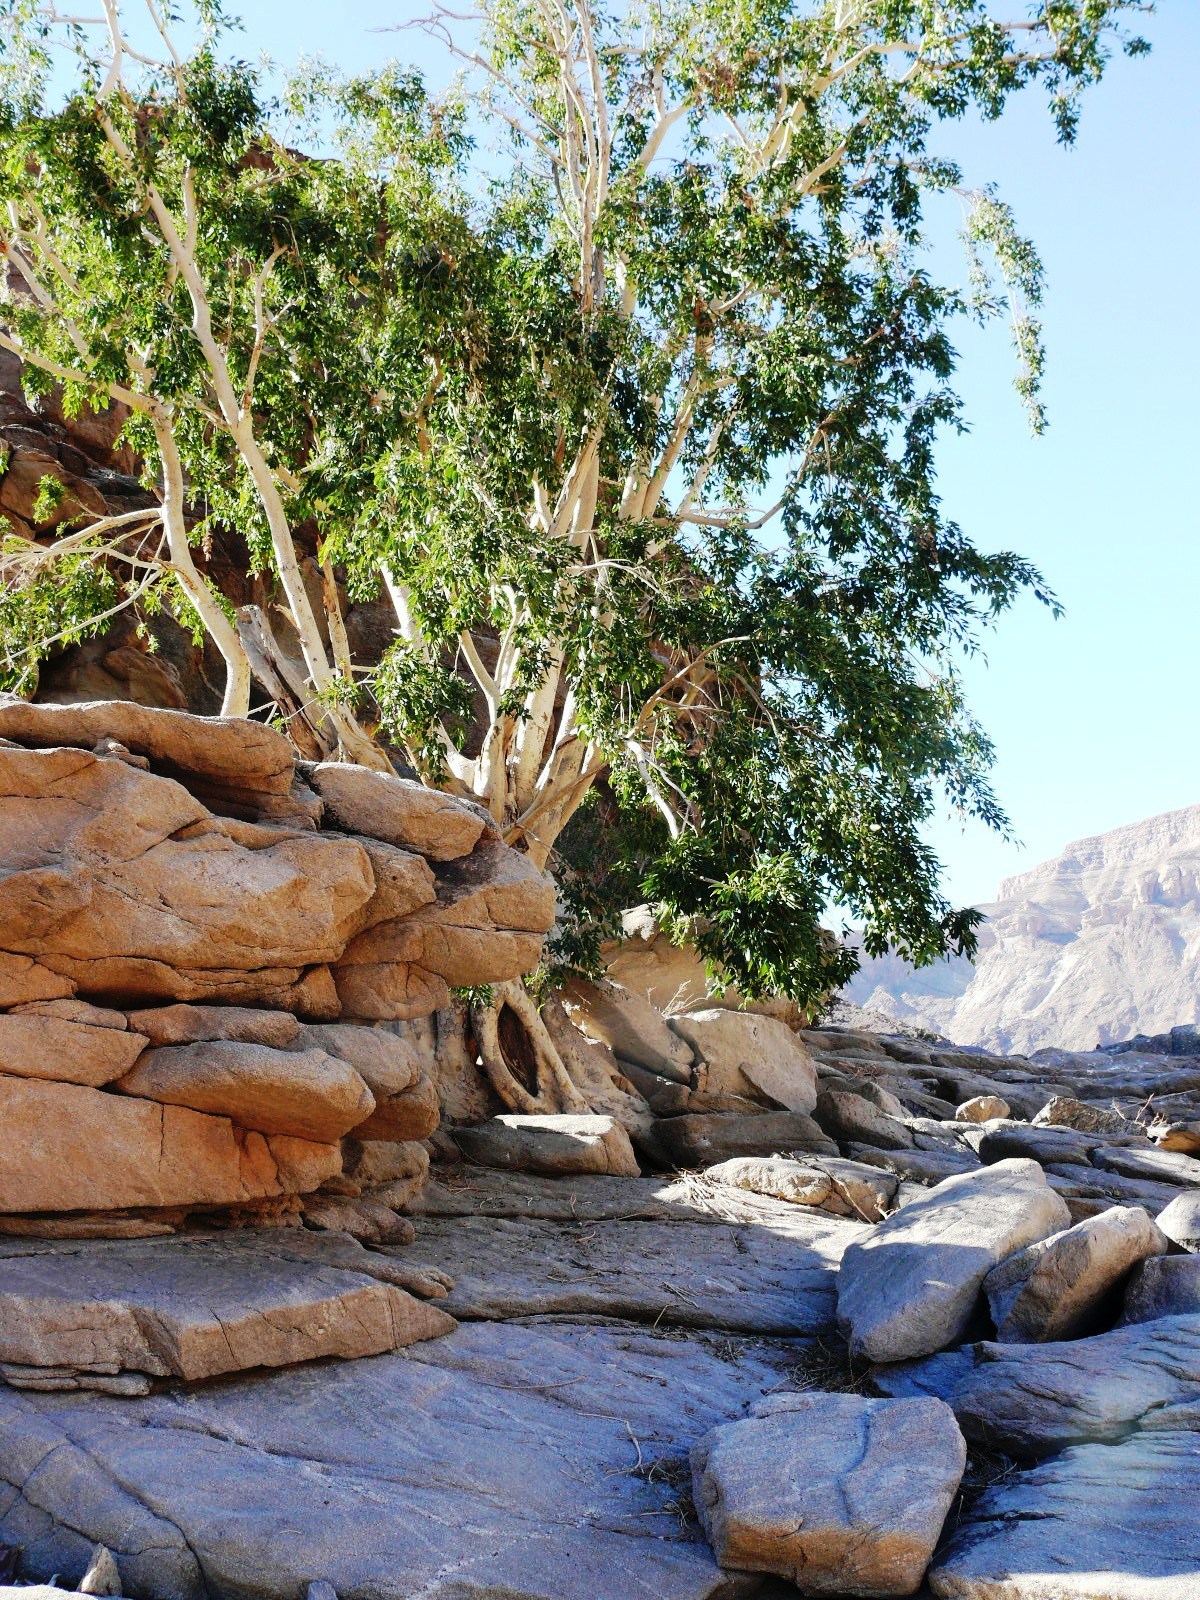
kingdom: Plantae
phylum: Tracheophyta
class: Magnoliopsida
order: Rosales
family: Moraceae
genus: Ficus
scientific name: Ficus cordata
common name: Namaqua rock fig
